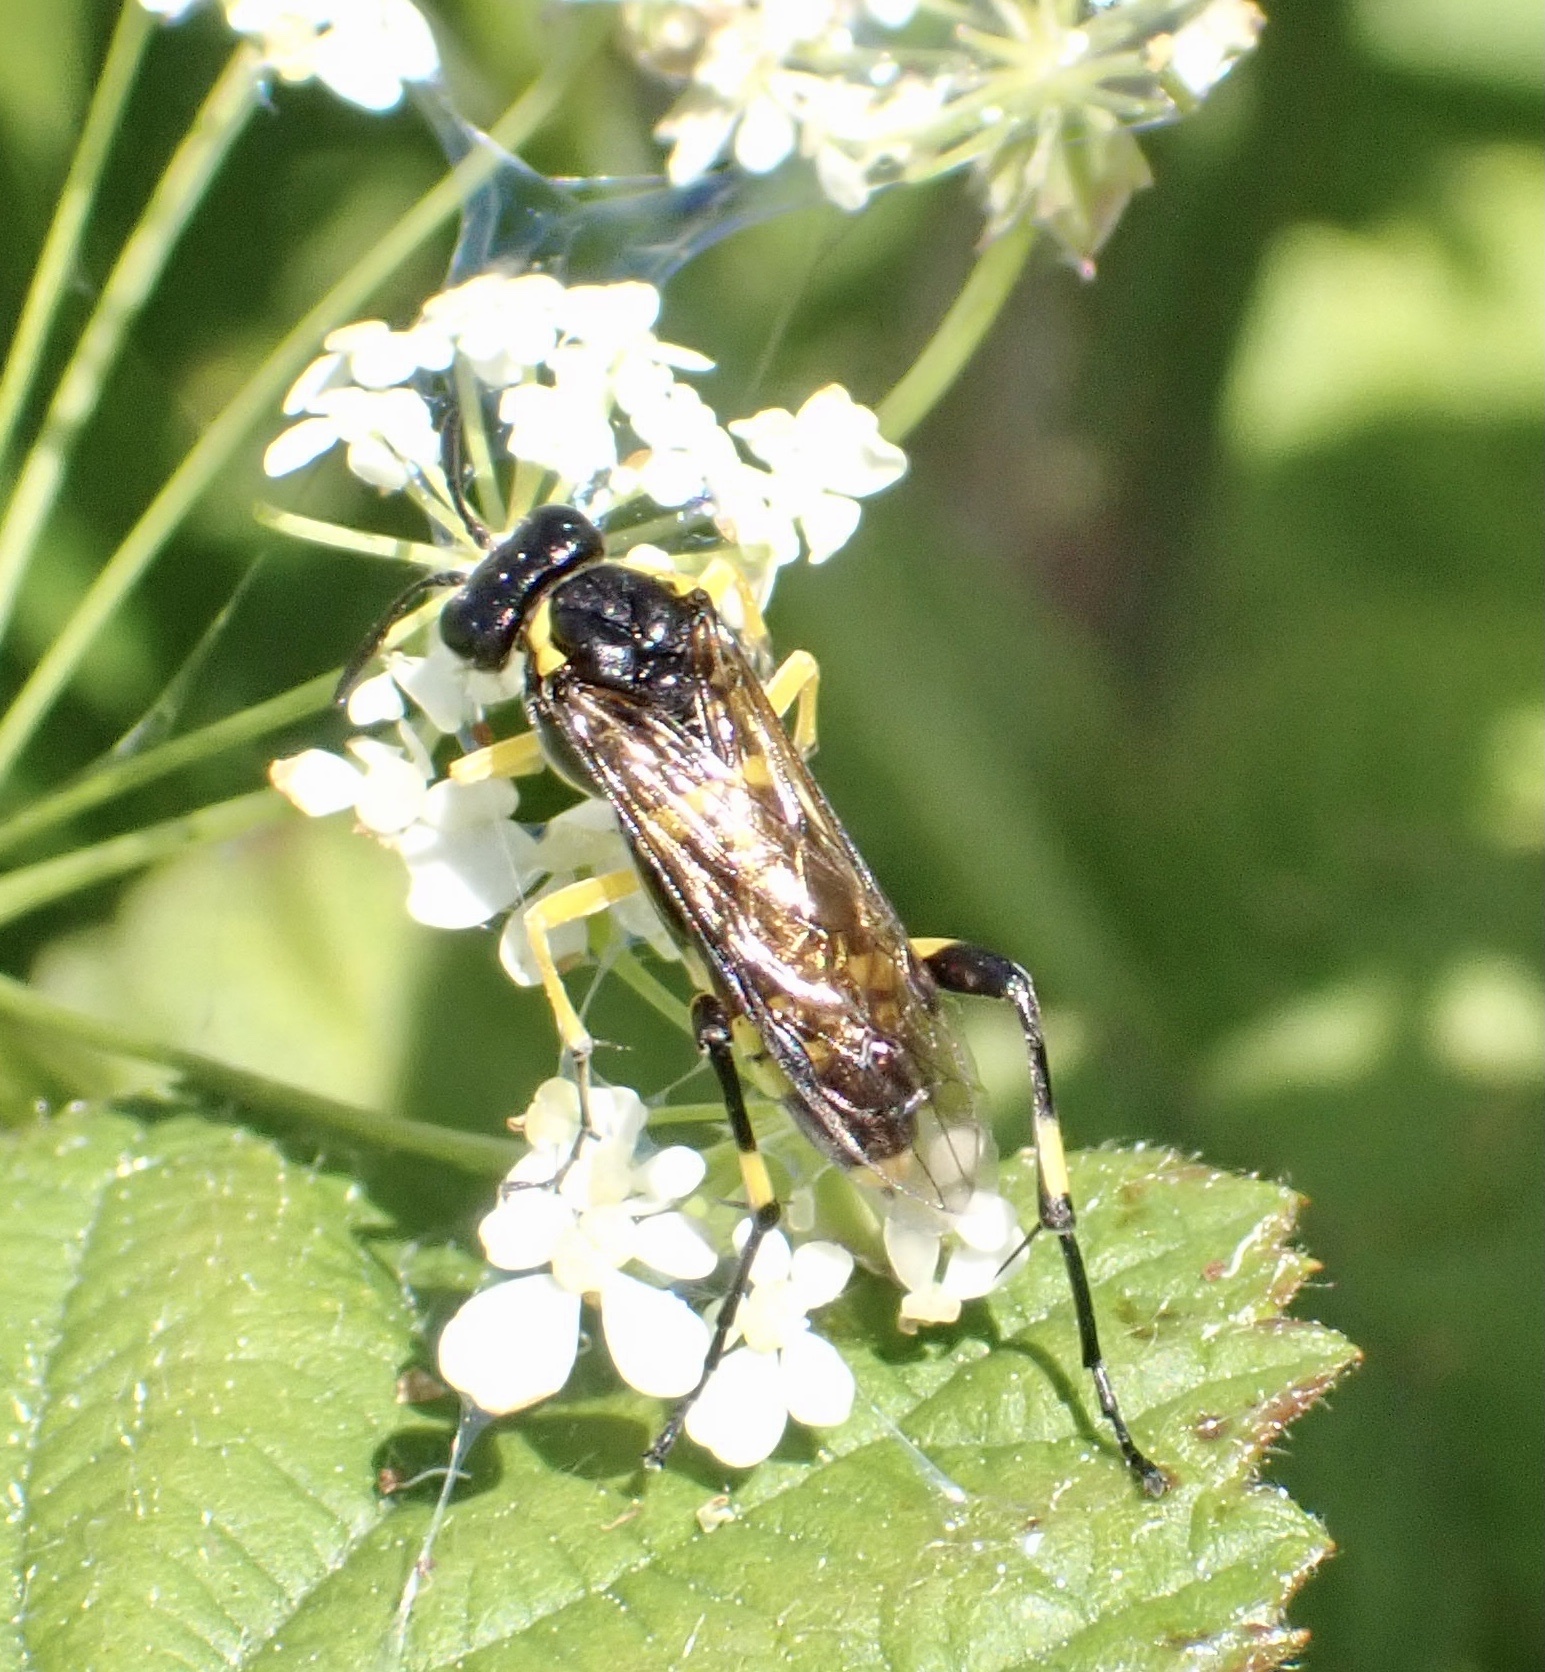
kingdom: Animalia
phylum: Arthropoda
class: Insecta
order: Hymenoptera
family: Tenthredinidae
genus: Macrophya
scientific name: Macrophya montana
